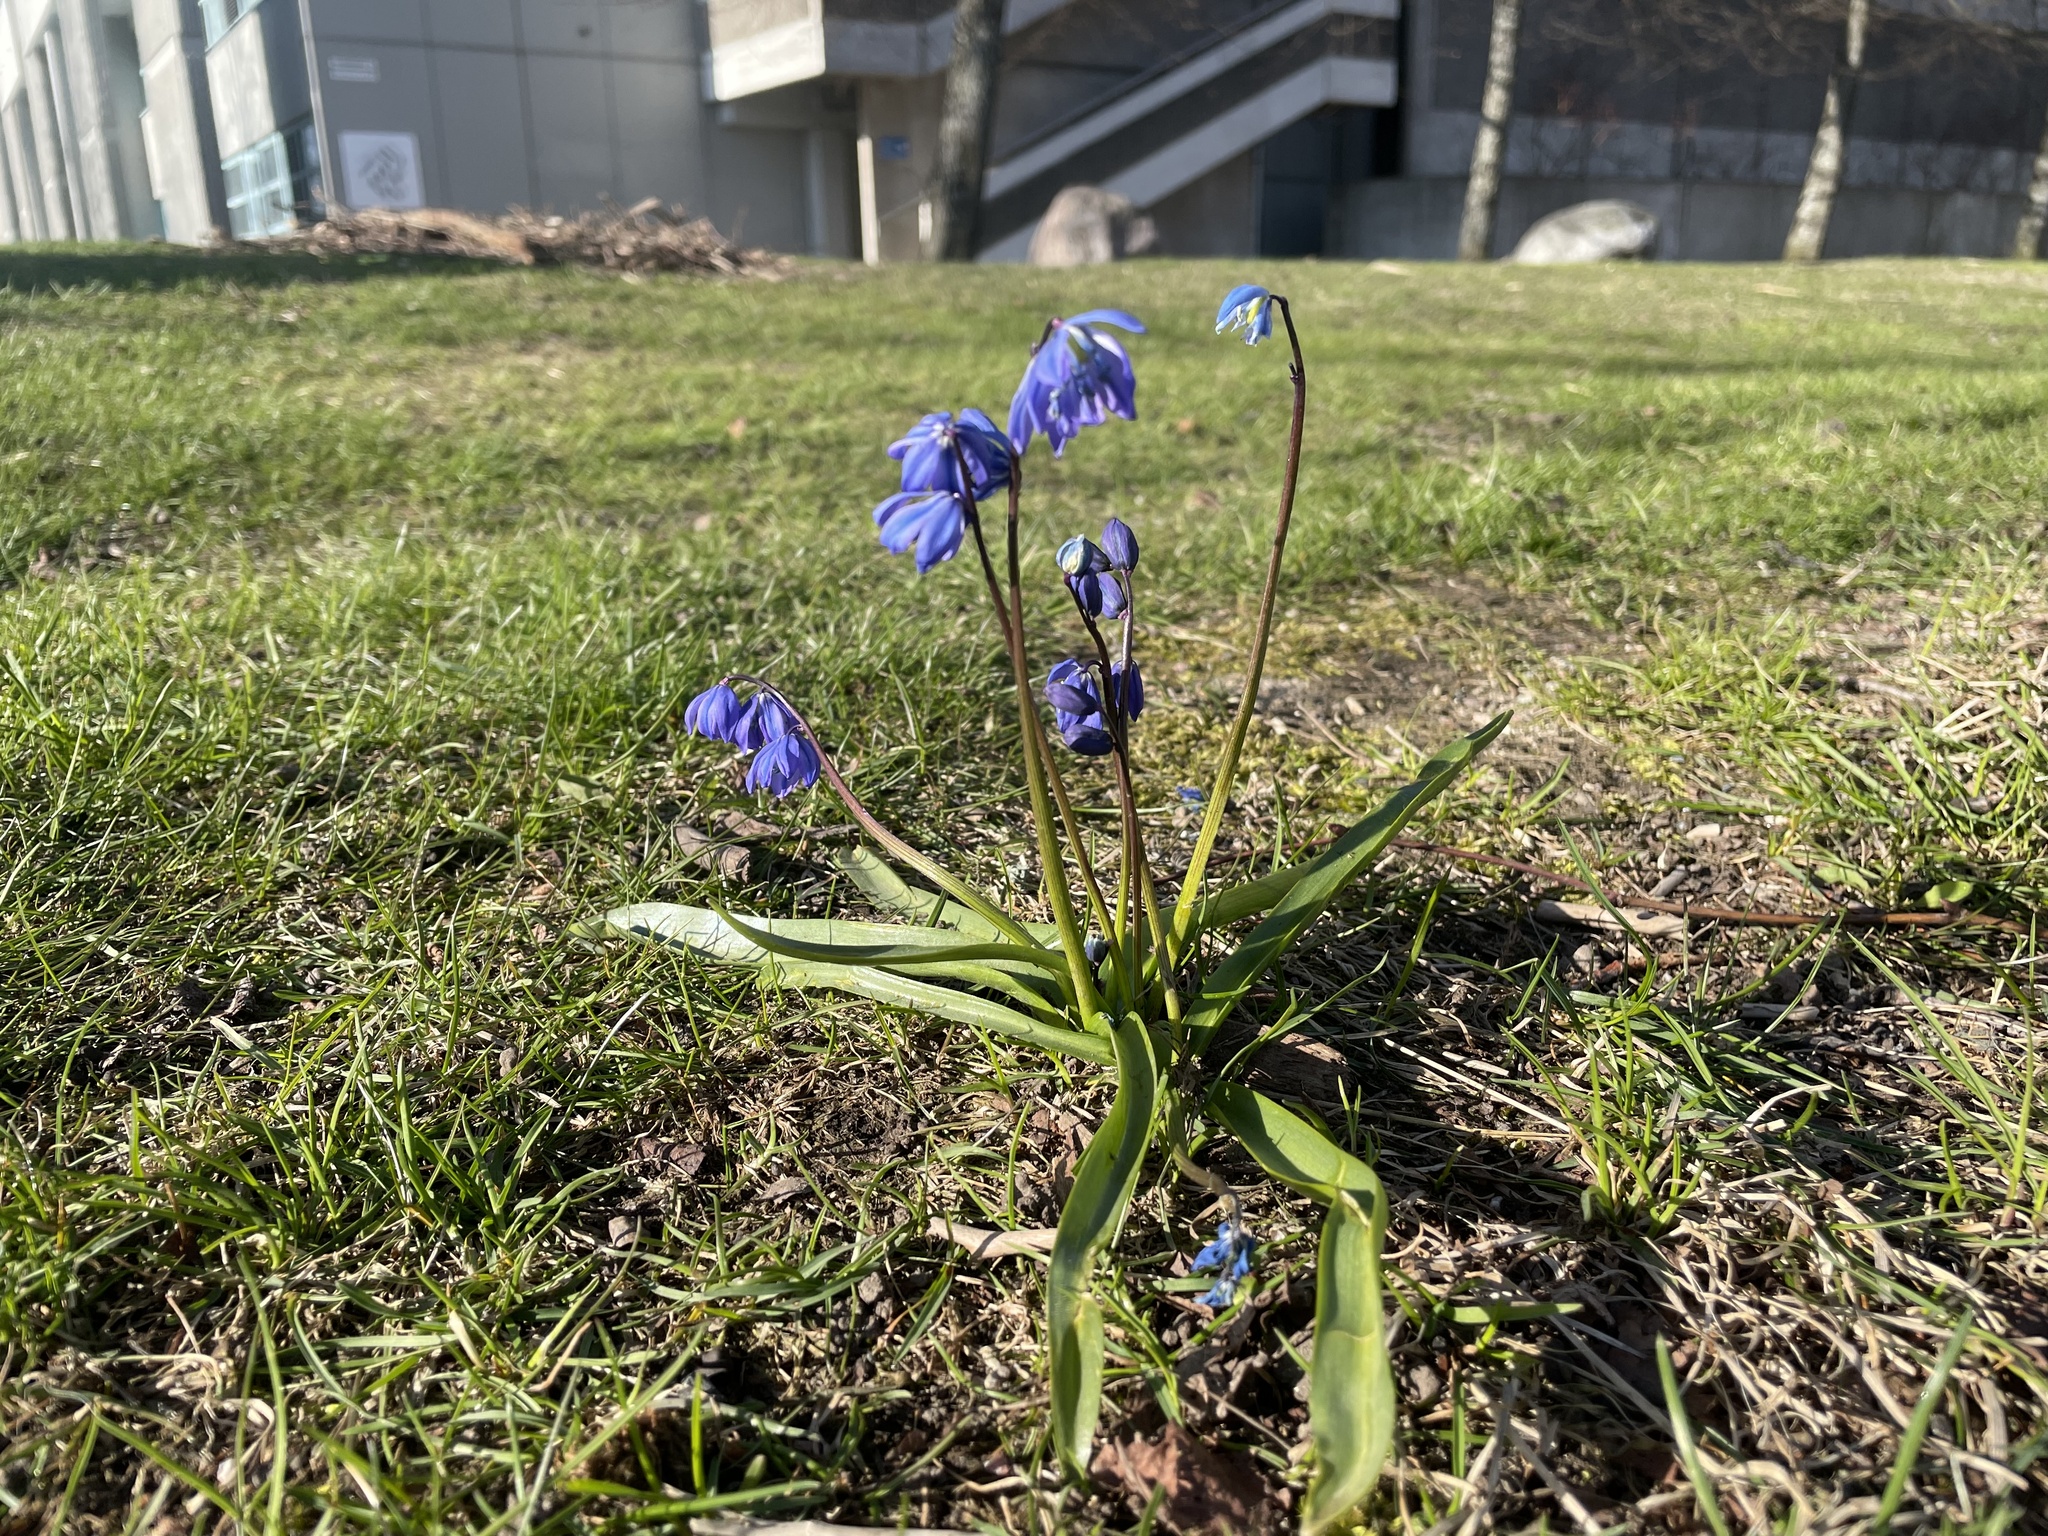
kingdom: Plantae
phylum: Tracheophyta
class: Liliopsida
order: Asparagales
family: Asparagaceae
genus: Scilla
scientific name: Scilla siberica
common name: Siberian squill
